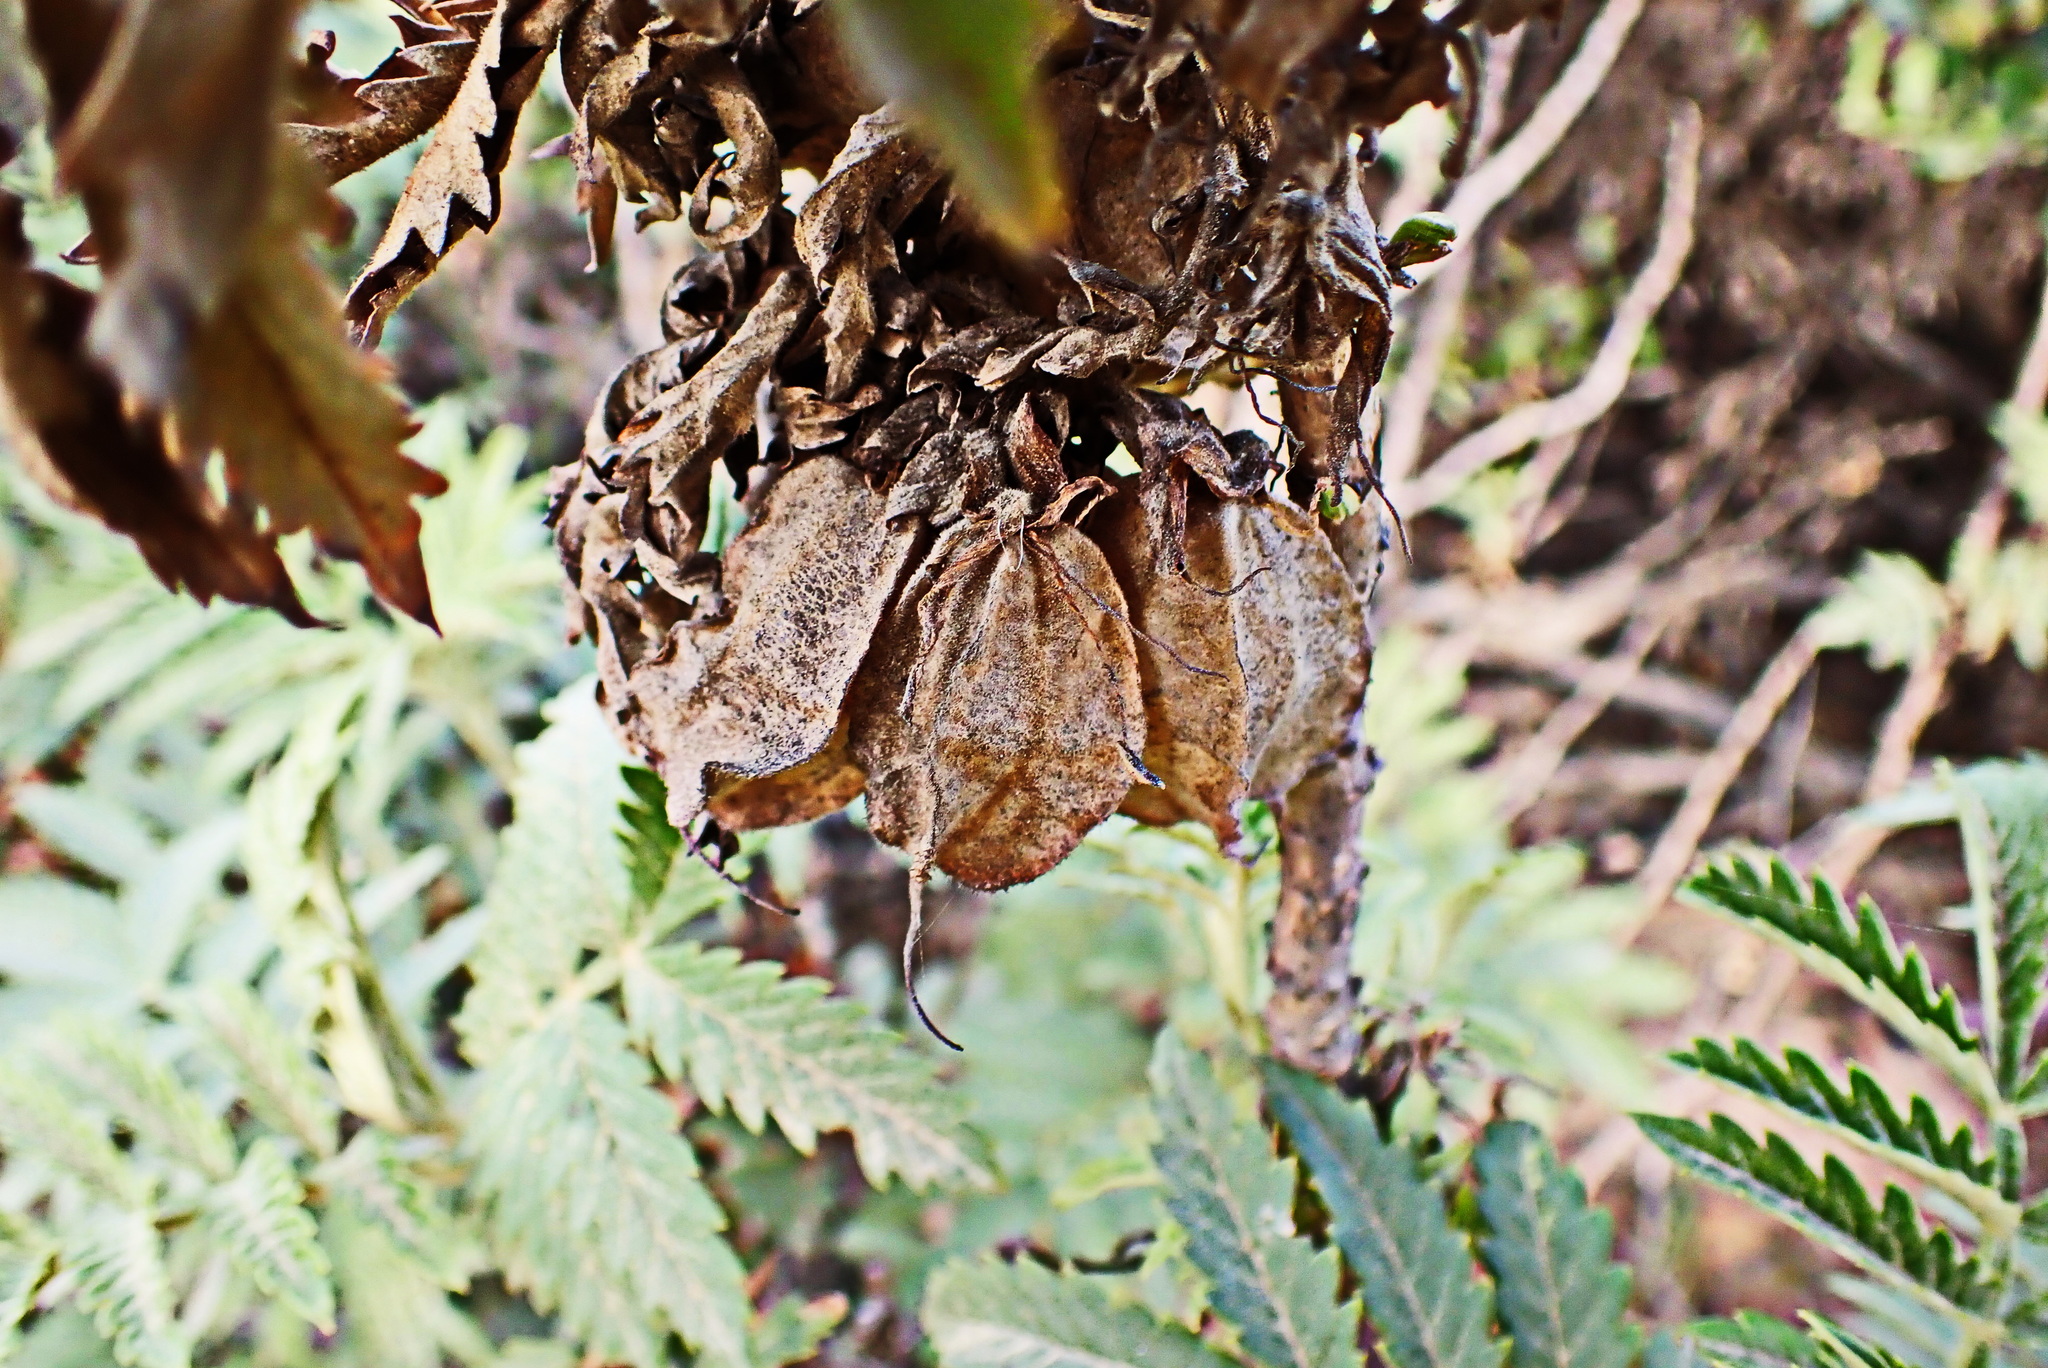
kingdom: Plantae
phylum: Tracheophyta
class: Magnoliopsida
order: Geraniales
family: Melianthaceae
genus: Melianthus
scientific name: Melianthus comosus
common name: Touch-me-not
